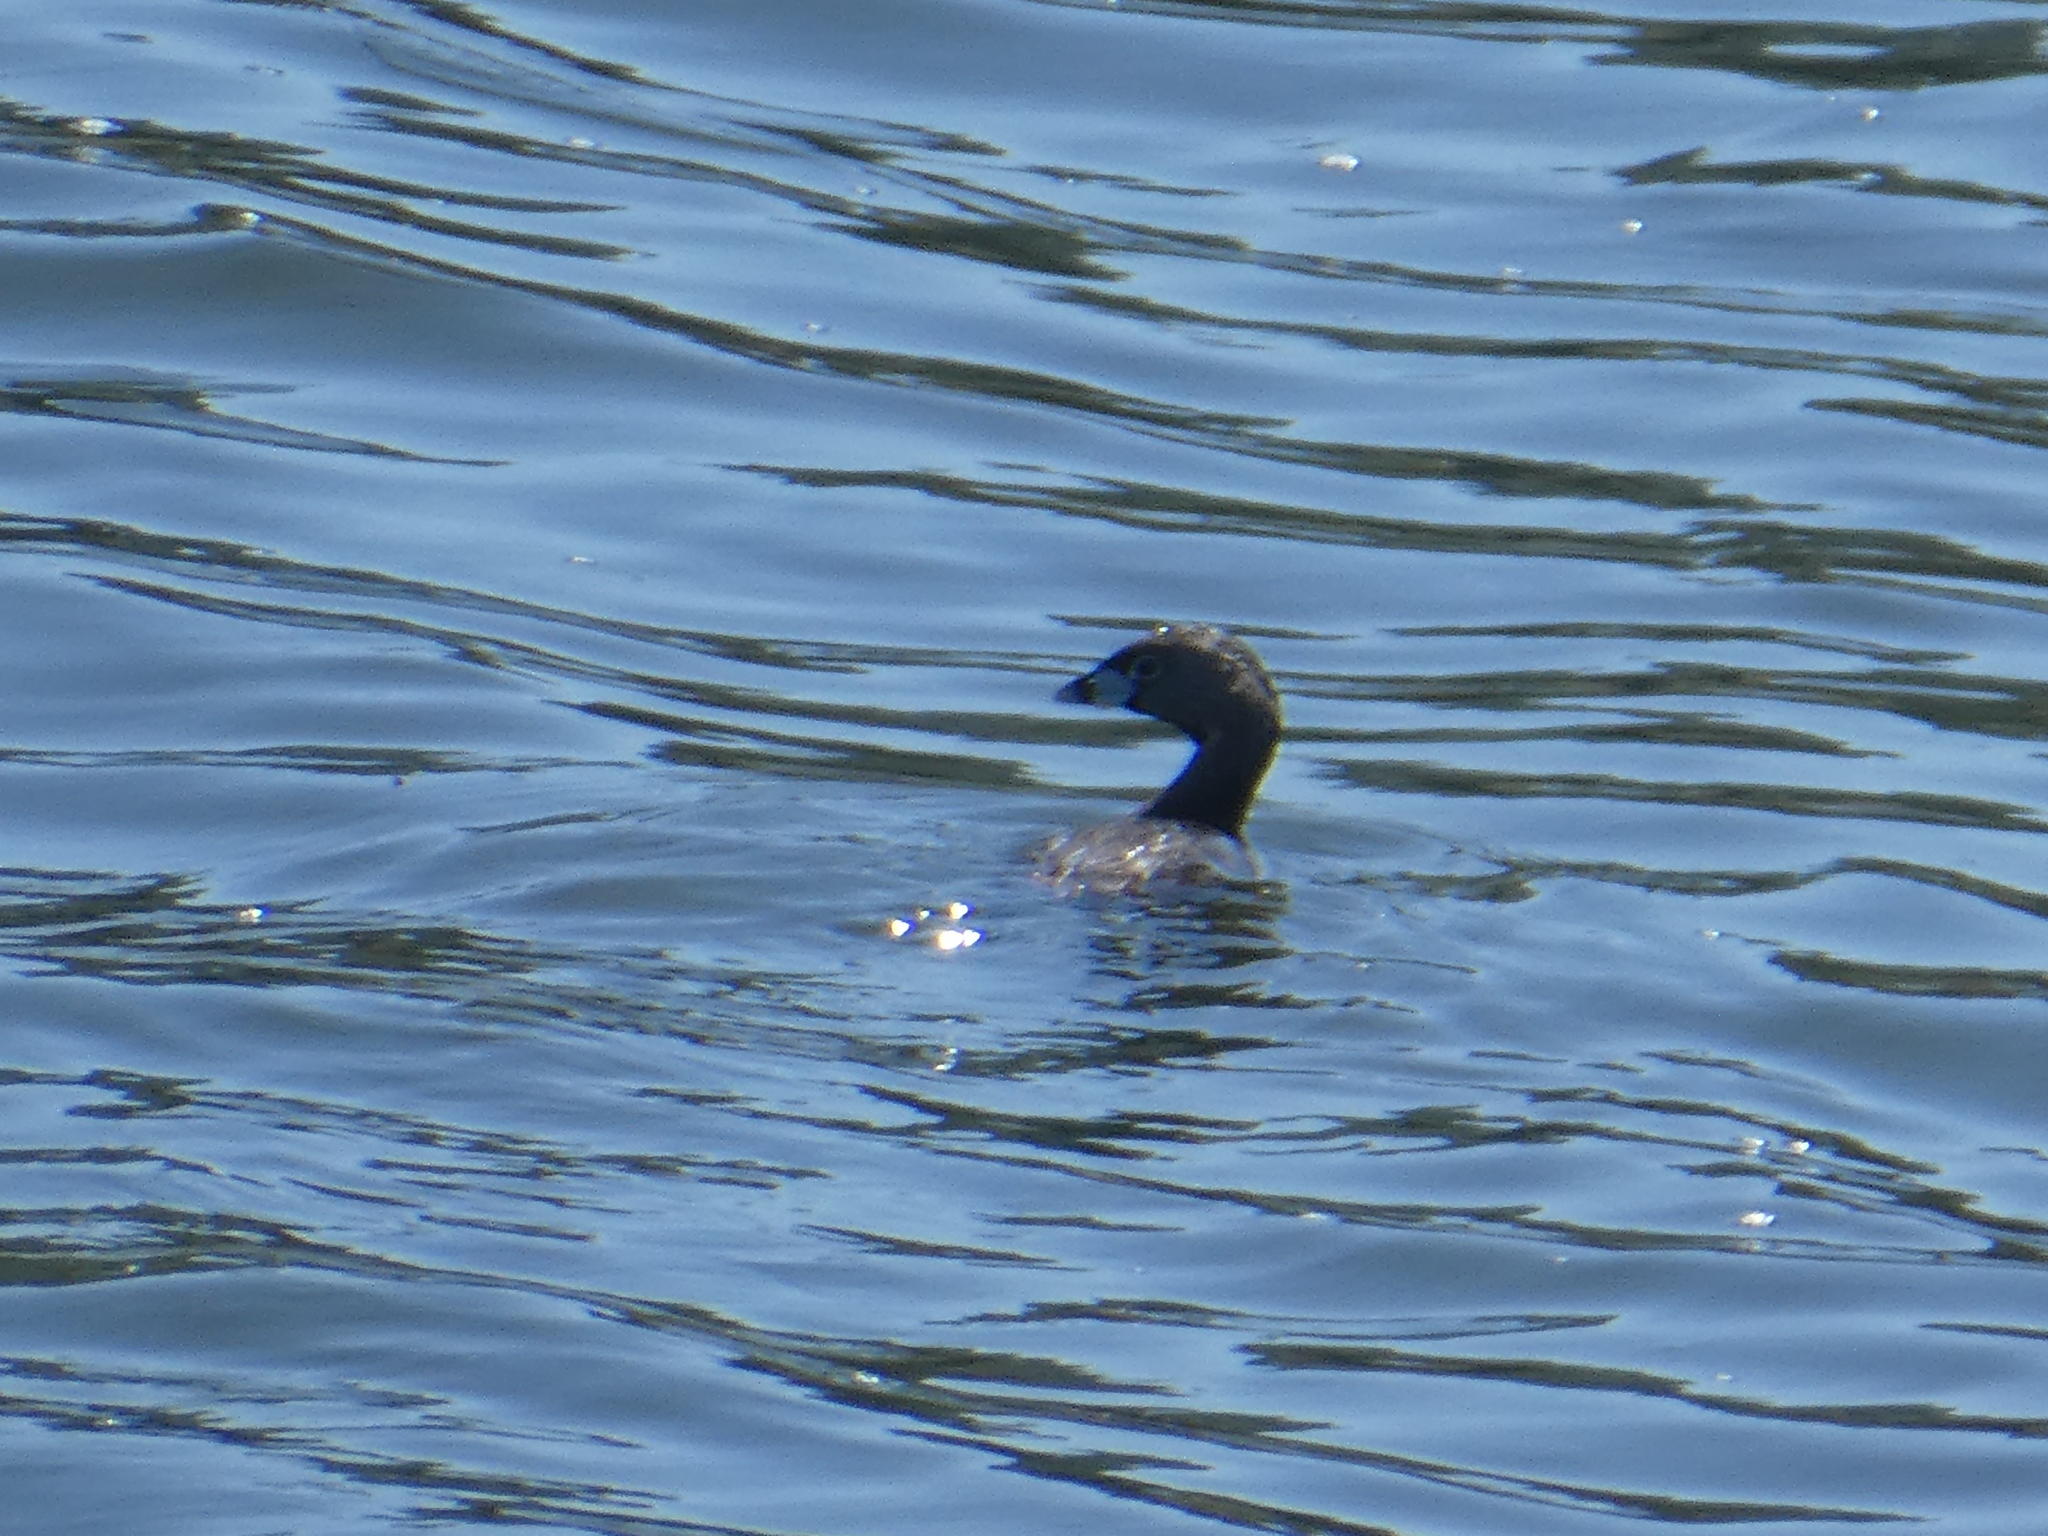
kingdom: Animalia
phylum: Chordata
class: Aves
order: Podicipediformes
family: Podicipedidae
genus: Podilymbus
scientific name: Podilymbus podiceps
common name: Pied-billed grebe
